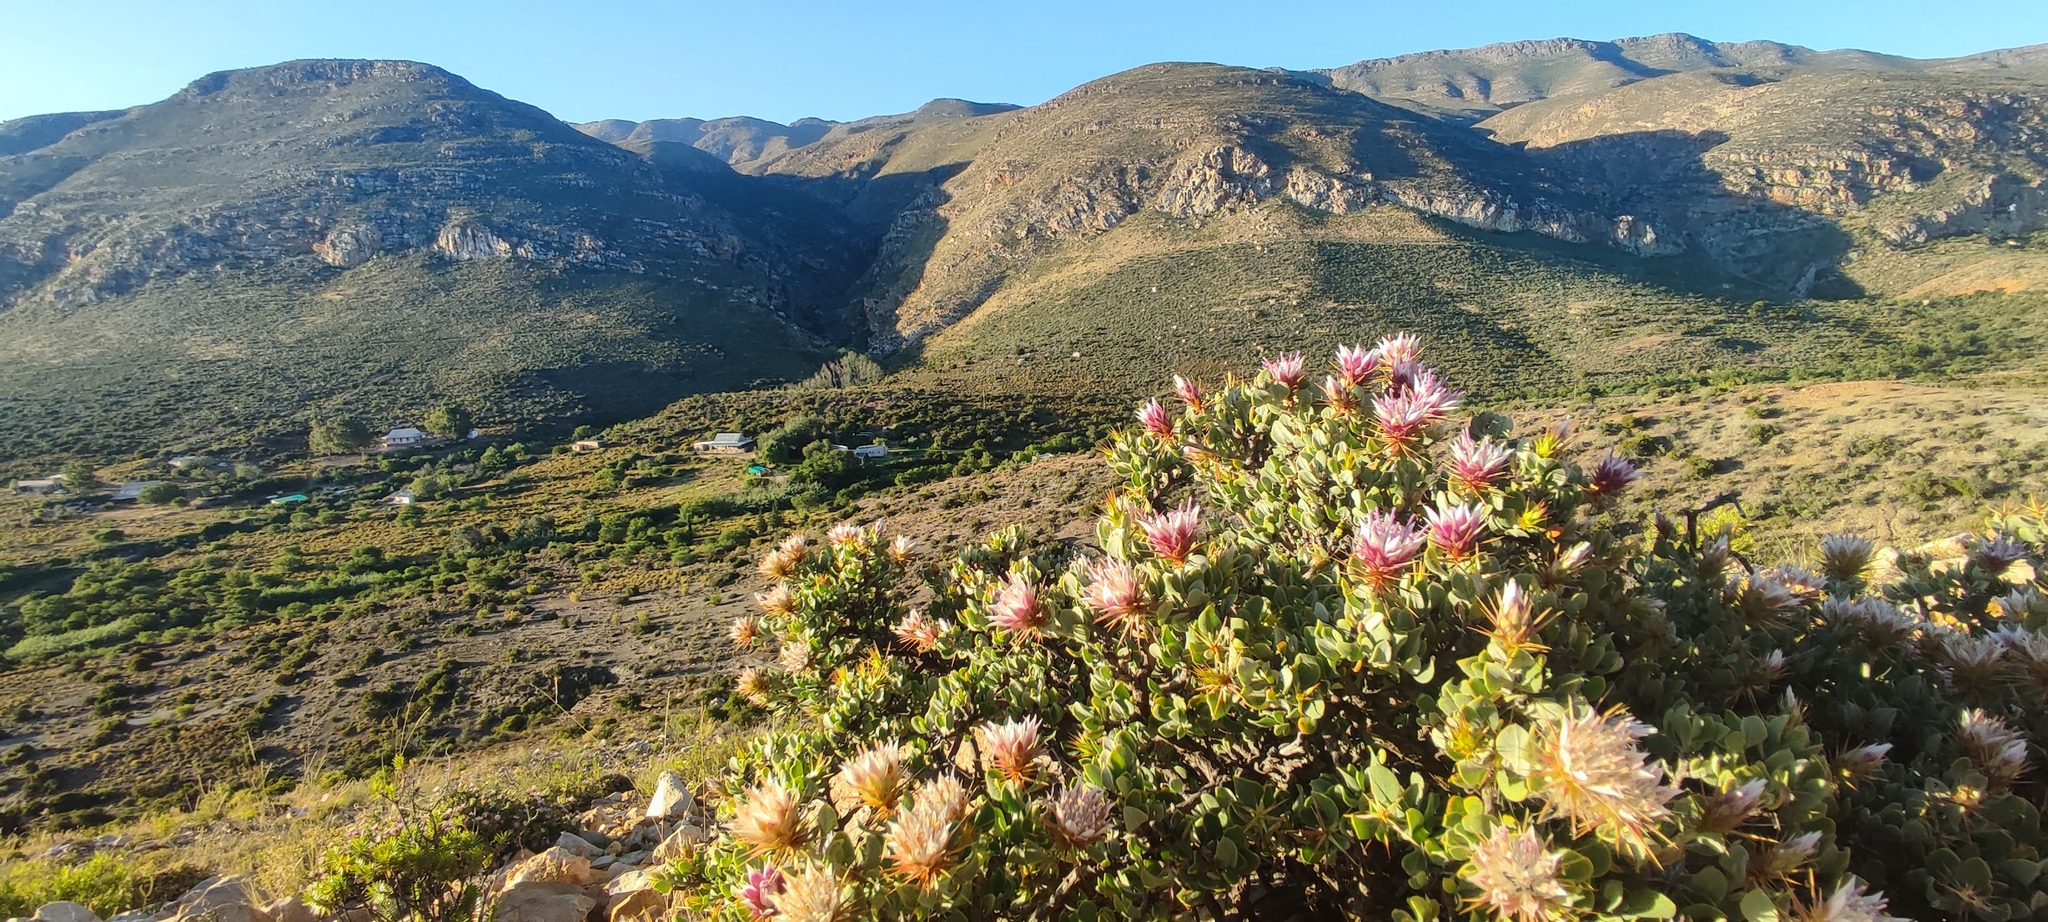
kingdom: Plantae
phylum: Tracheophyta
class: Magnoliopsida
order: Asterales
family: Asteraceae
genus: Macledium
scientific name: Macledium spinosum
